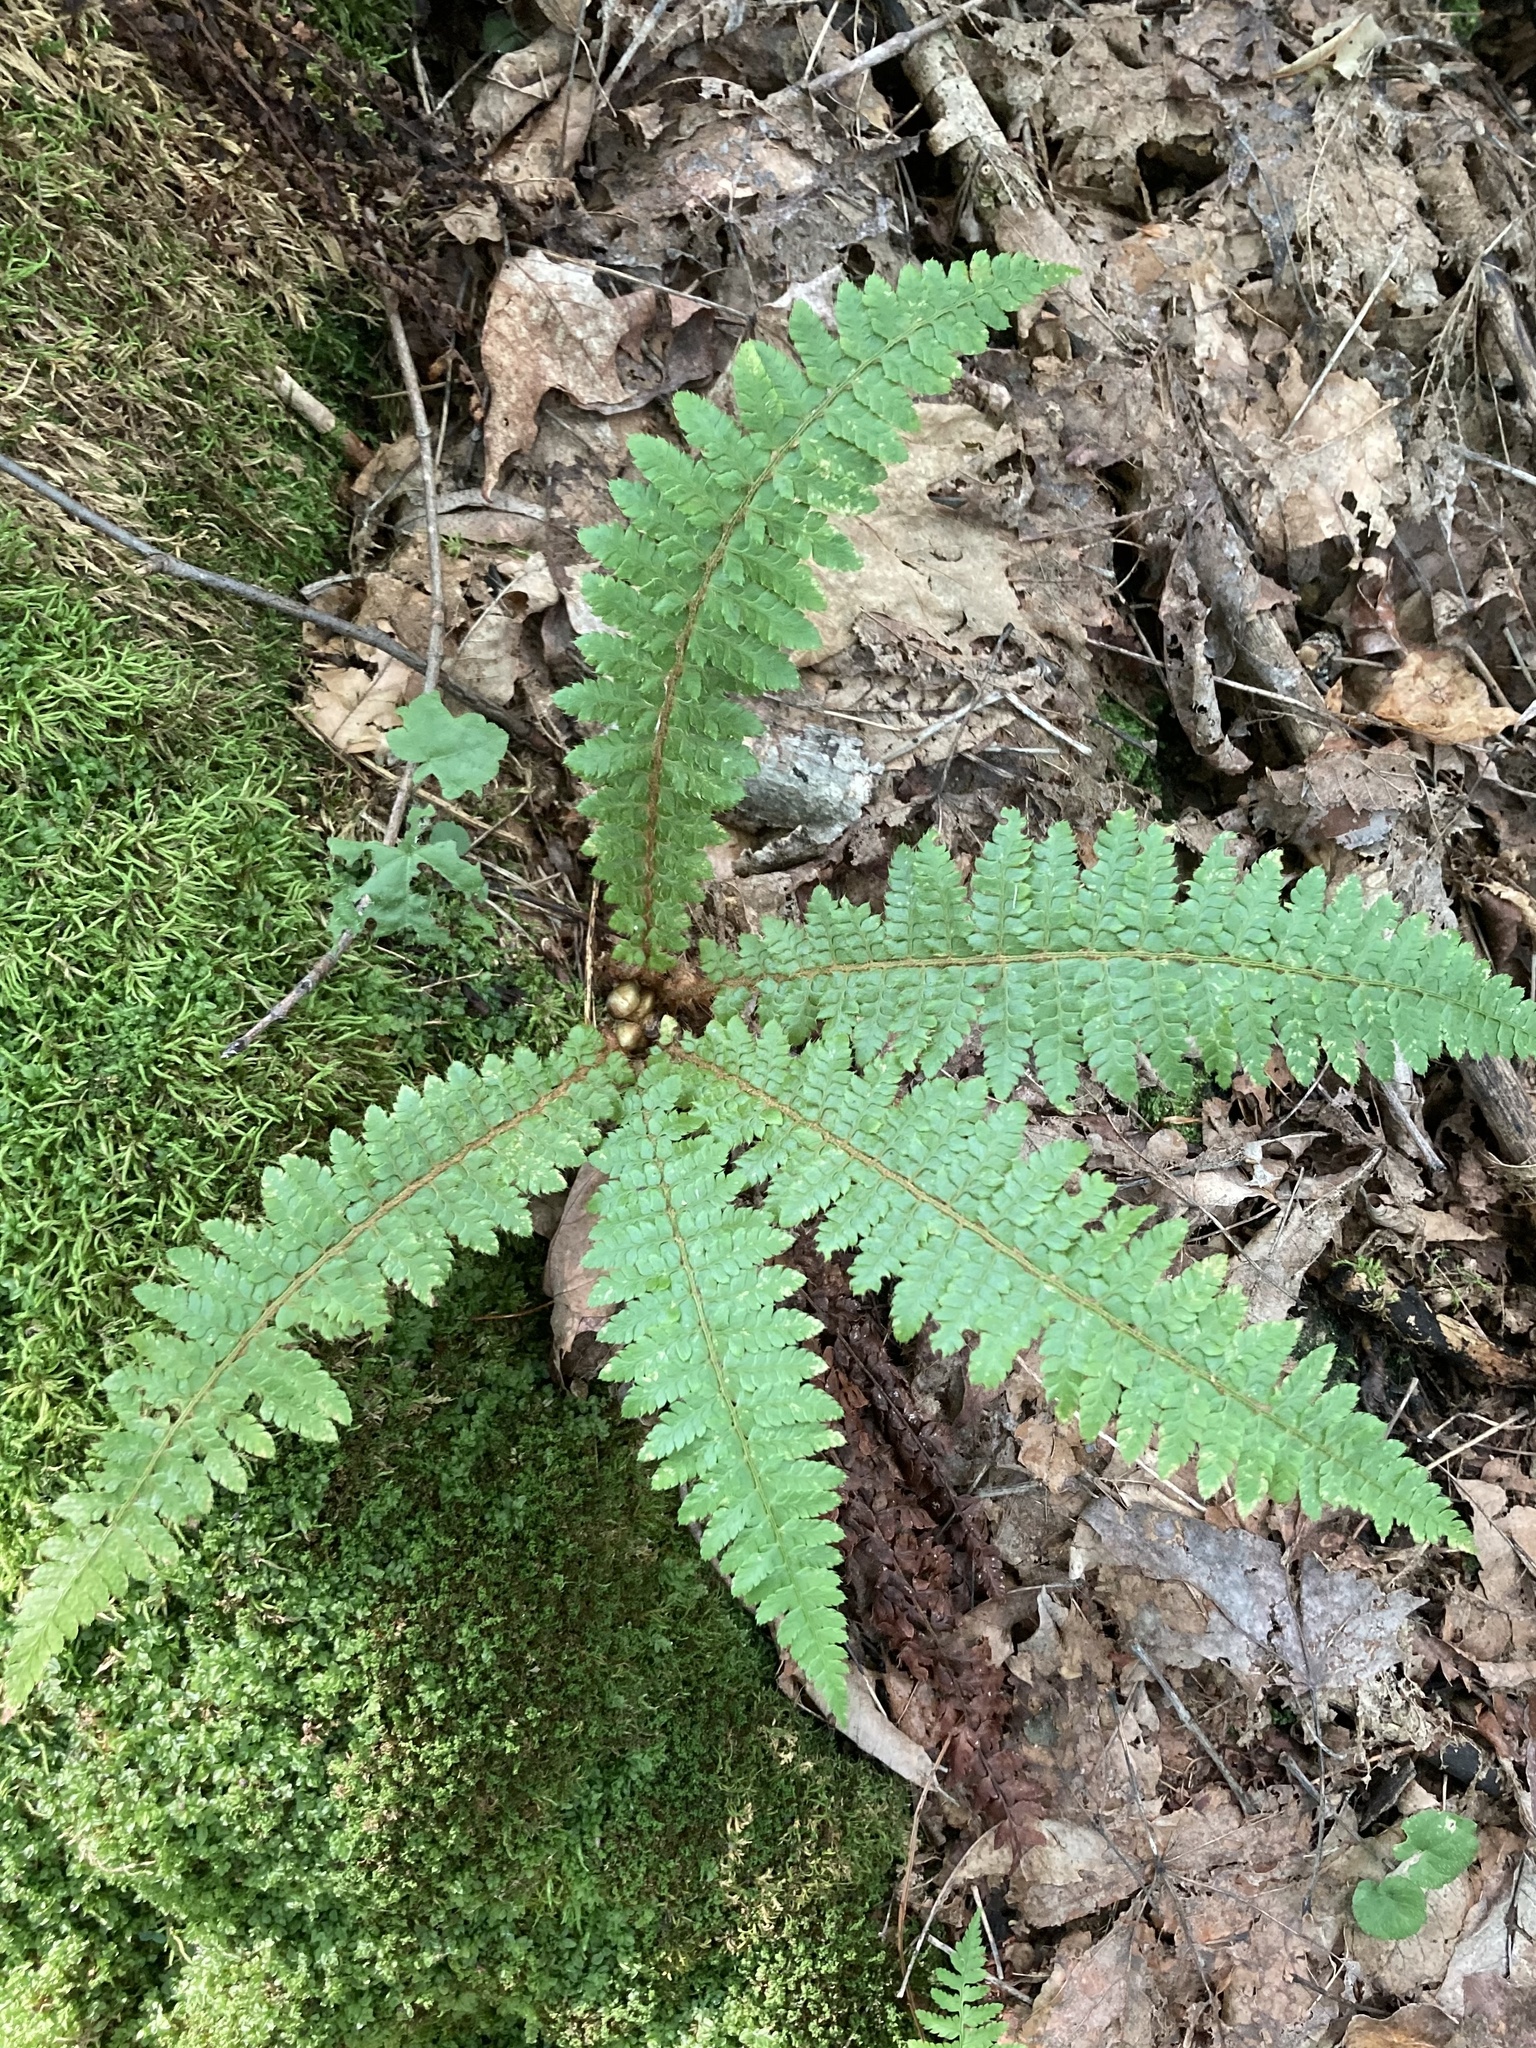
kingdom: Plantae
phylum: Tracheophyta
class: Polypodiopsida
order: Polypodiales
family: Dryopteridaceae
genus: Polystichum
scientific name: Polystichum braunii
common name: Braun's holly fern
